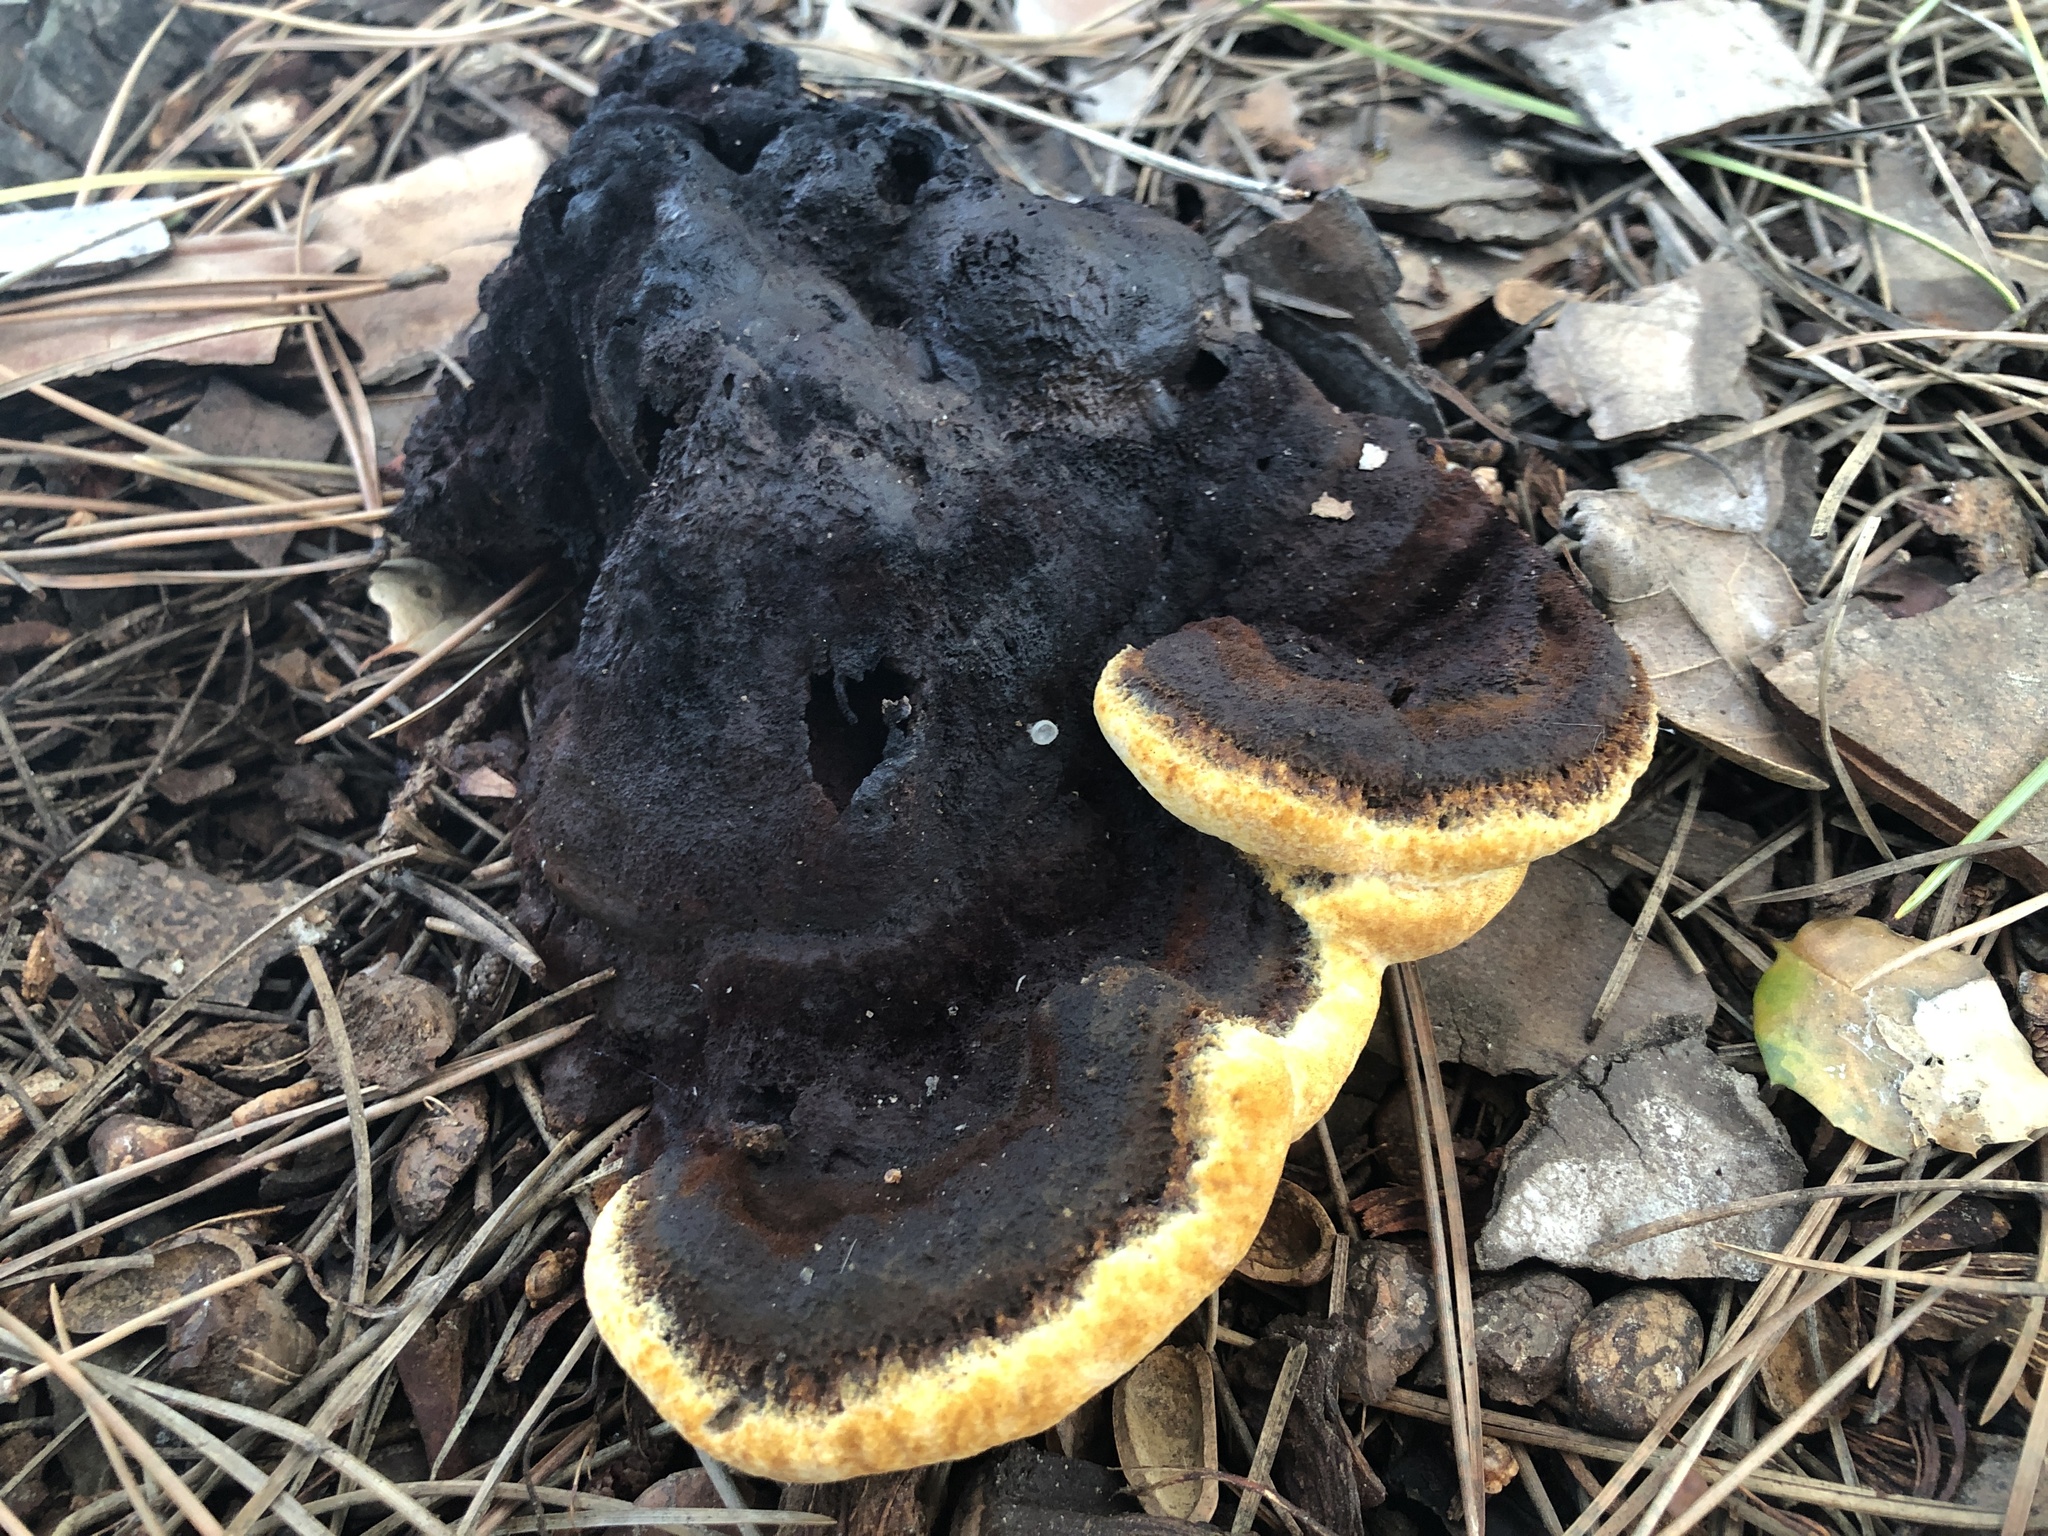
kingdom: Fungi
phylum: Basidiomycota
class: Agaricomycetes
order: Polyporales
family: Laetiporaceae
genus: Phaeolus
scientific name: Phaeolus schweinitzii
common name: Dyer's mazegill
